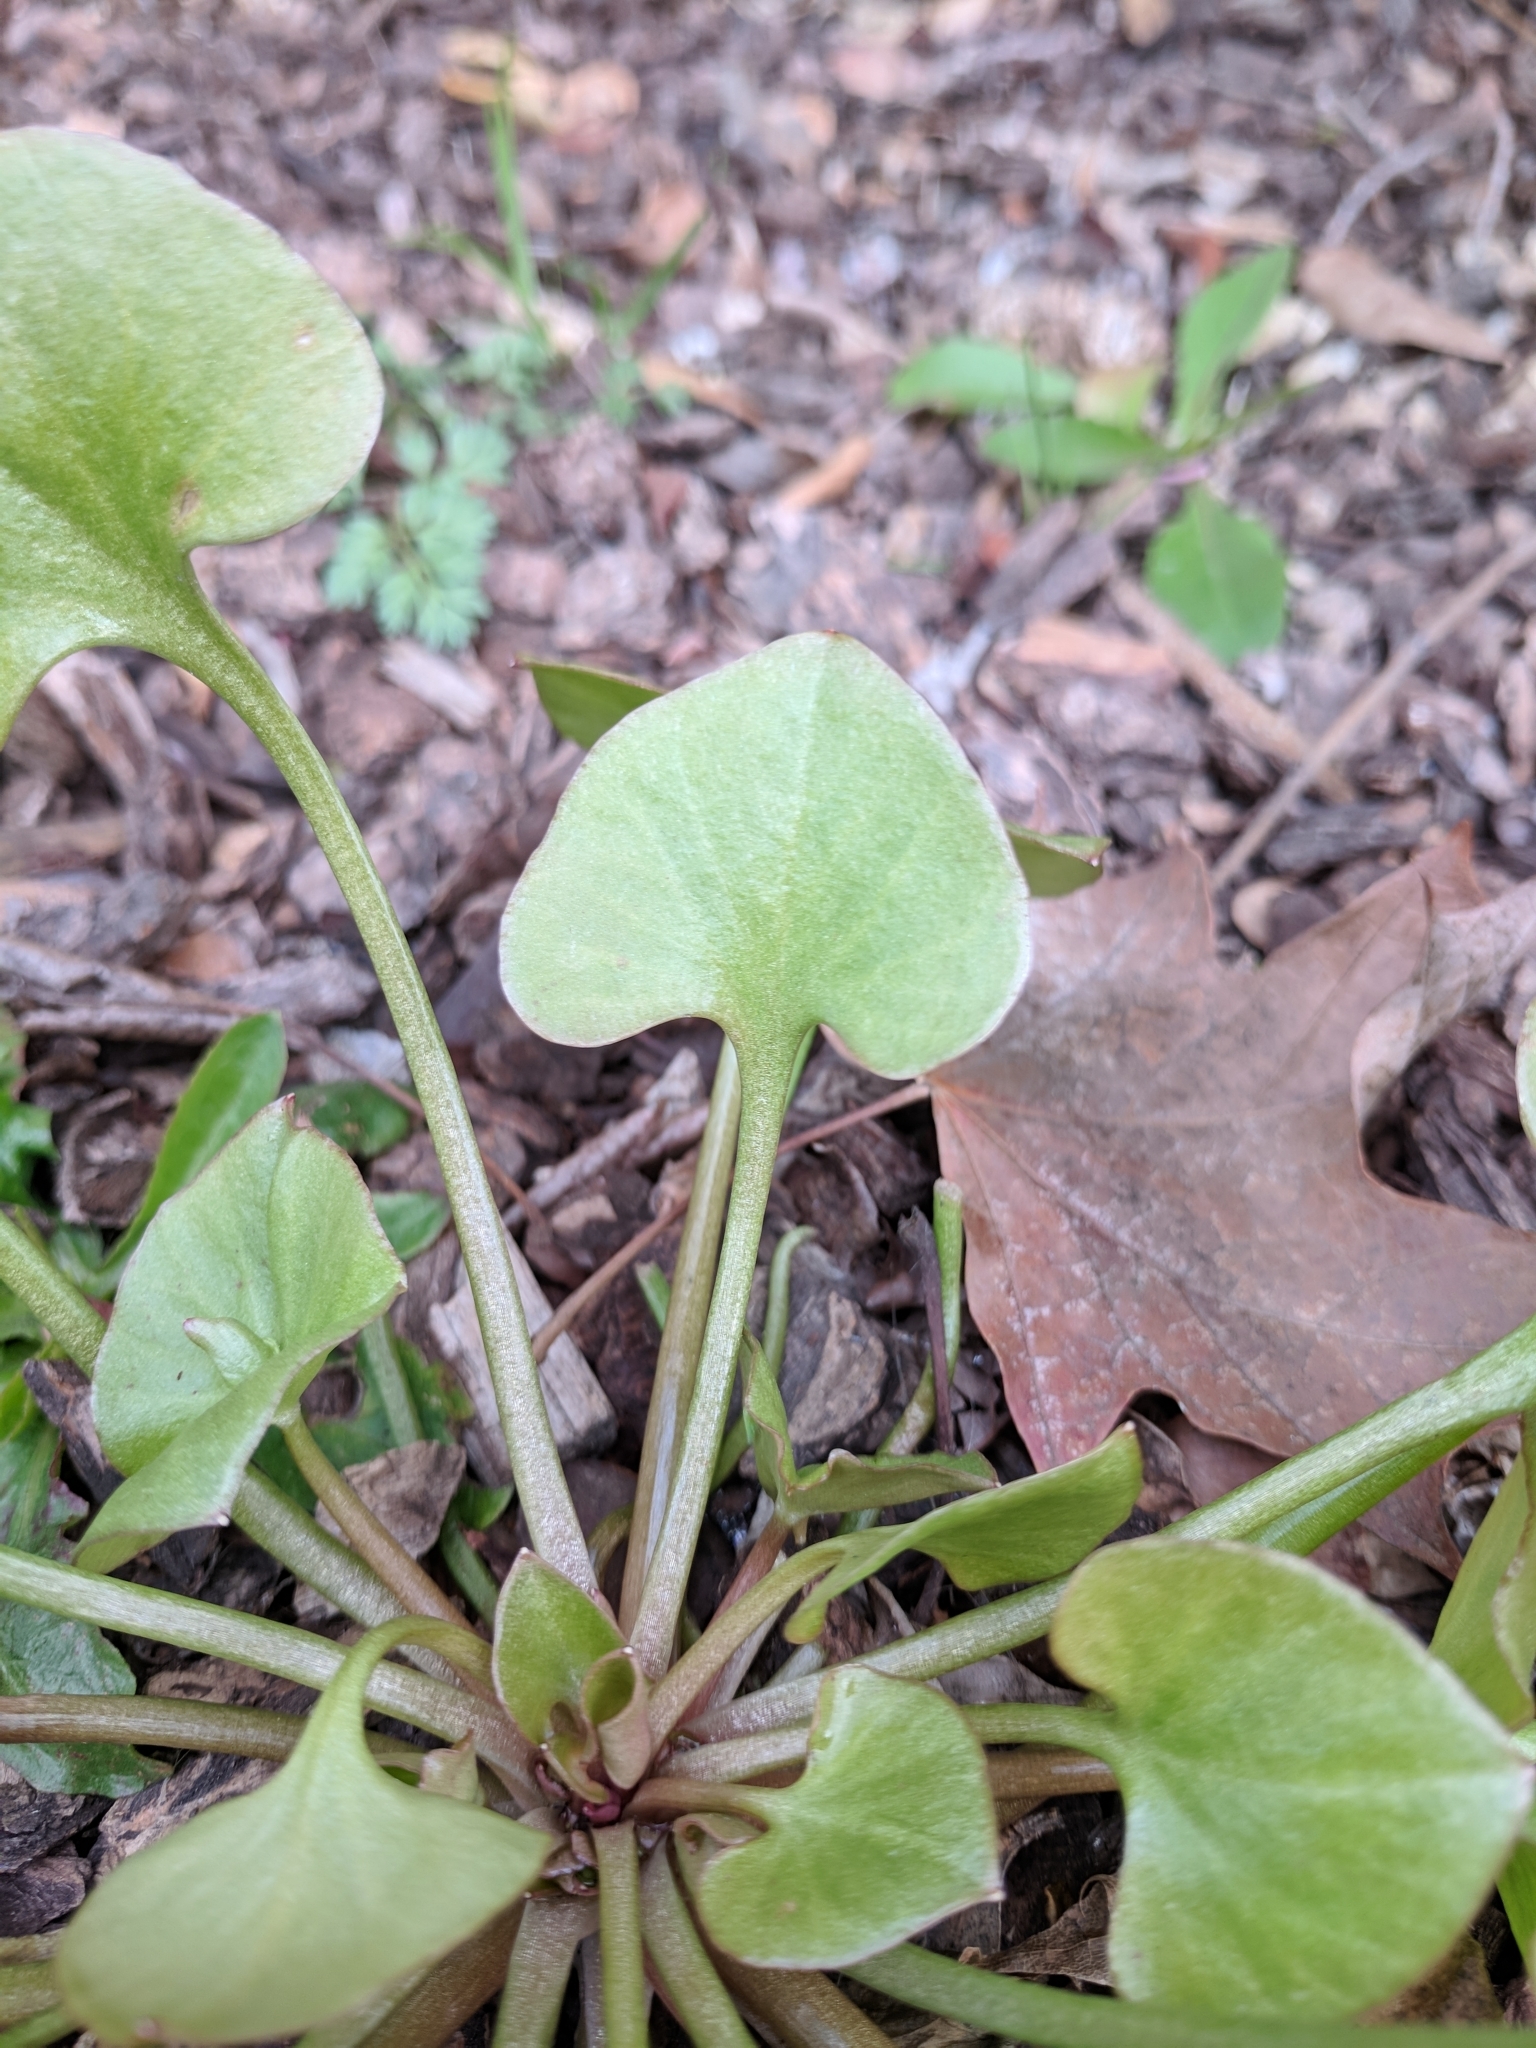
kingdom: Plantae
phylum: Tracheophyta
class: Magnoliopsida
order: Caryophyllales
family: Montiaceae
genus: Claytonia
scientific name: Claytonia perfoliata
